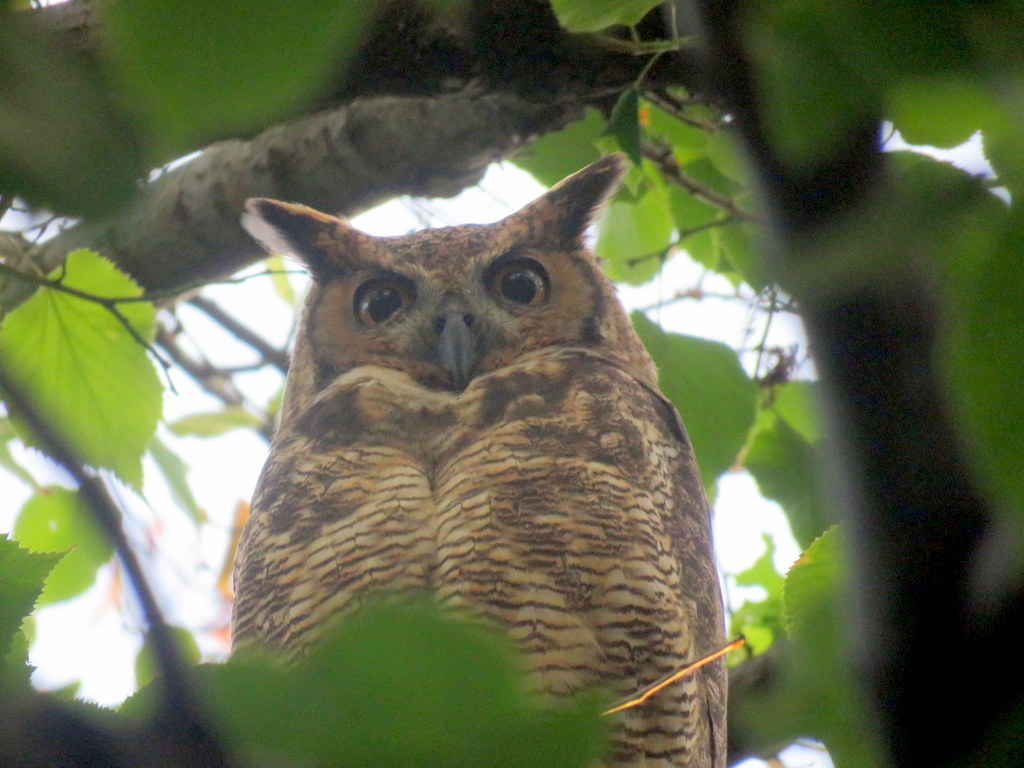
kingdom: Animalia
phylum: Chordata
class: Aves
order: Strigiformes
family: Strigidae
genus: Bubo
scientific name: Bubo virginianus
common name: Great horned owl
